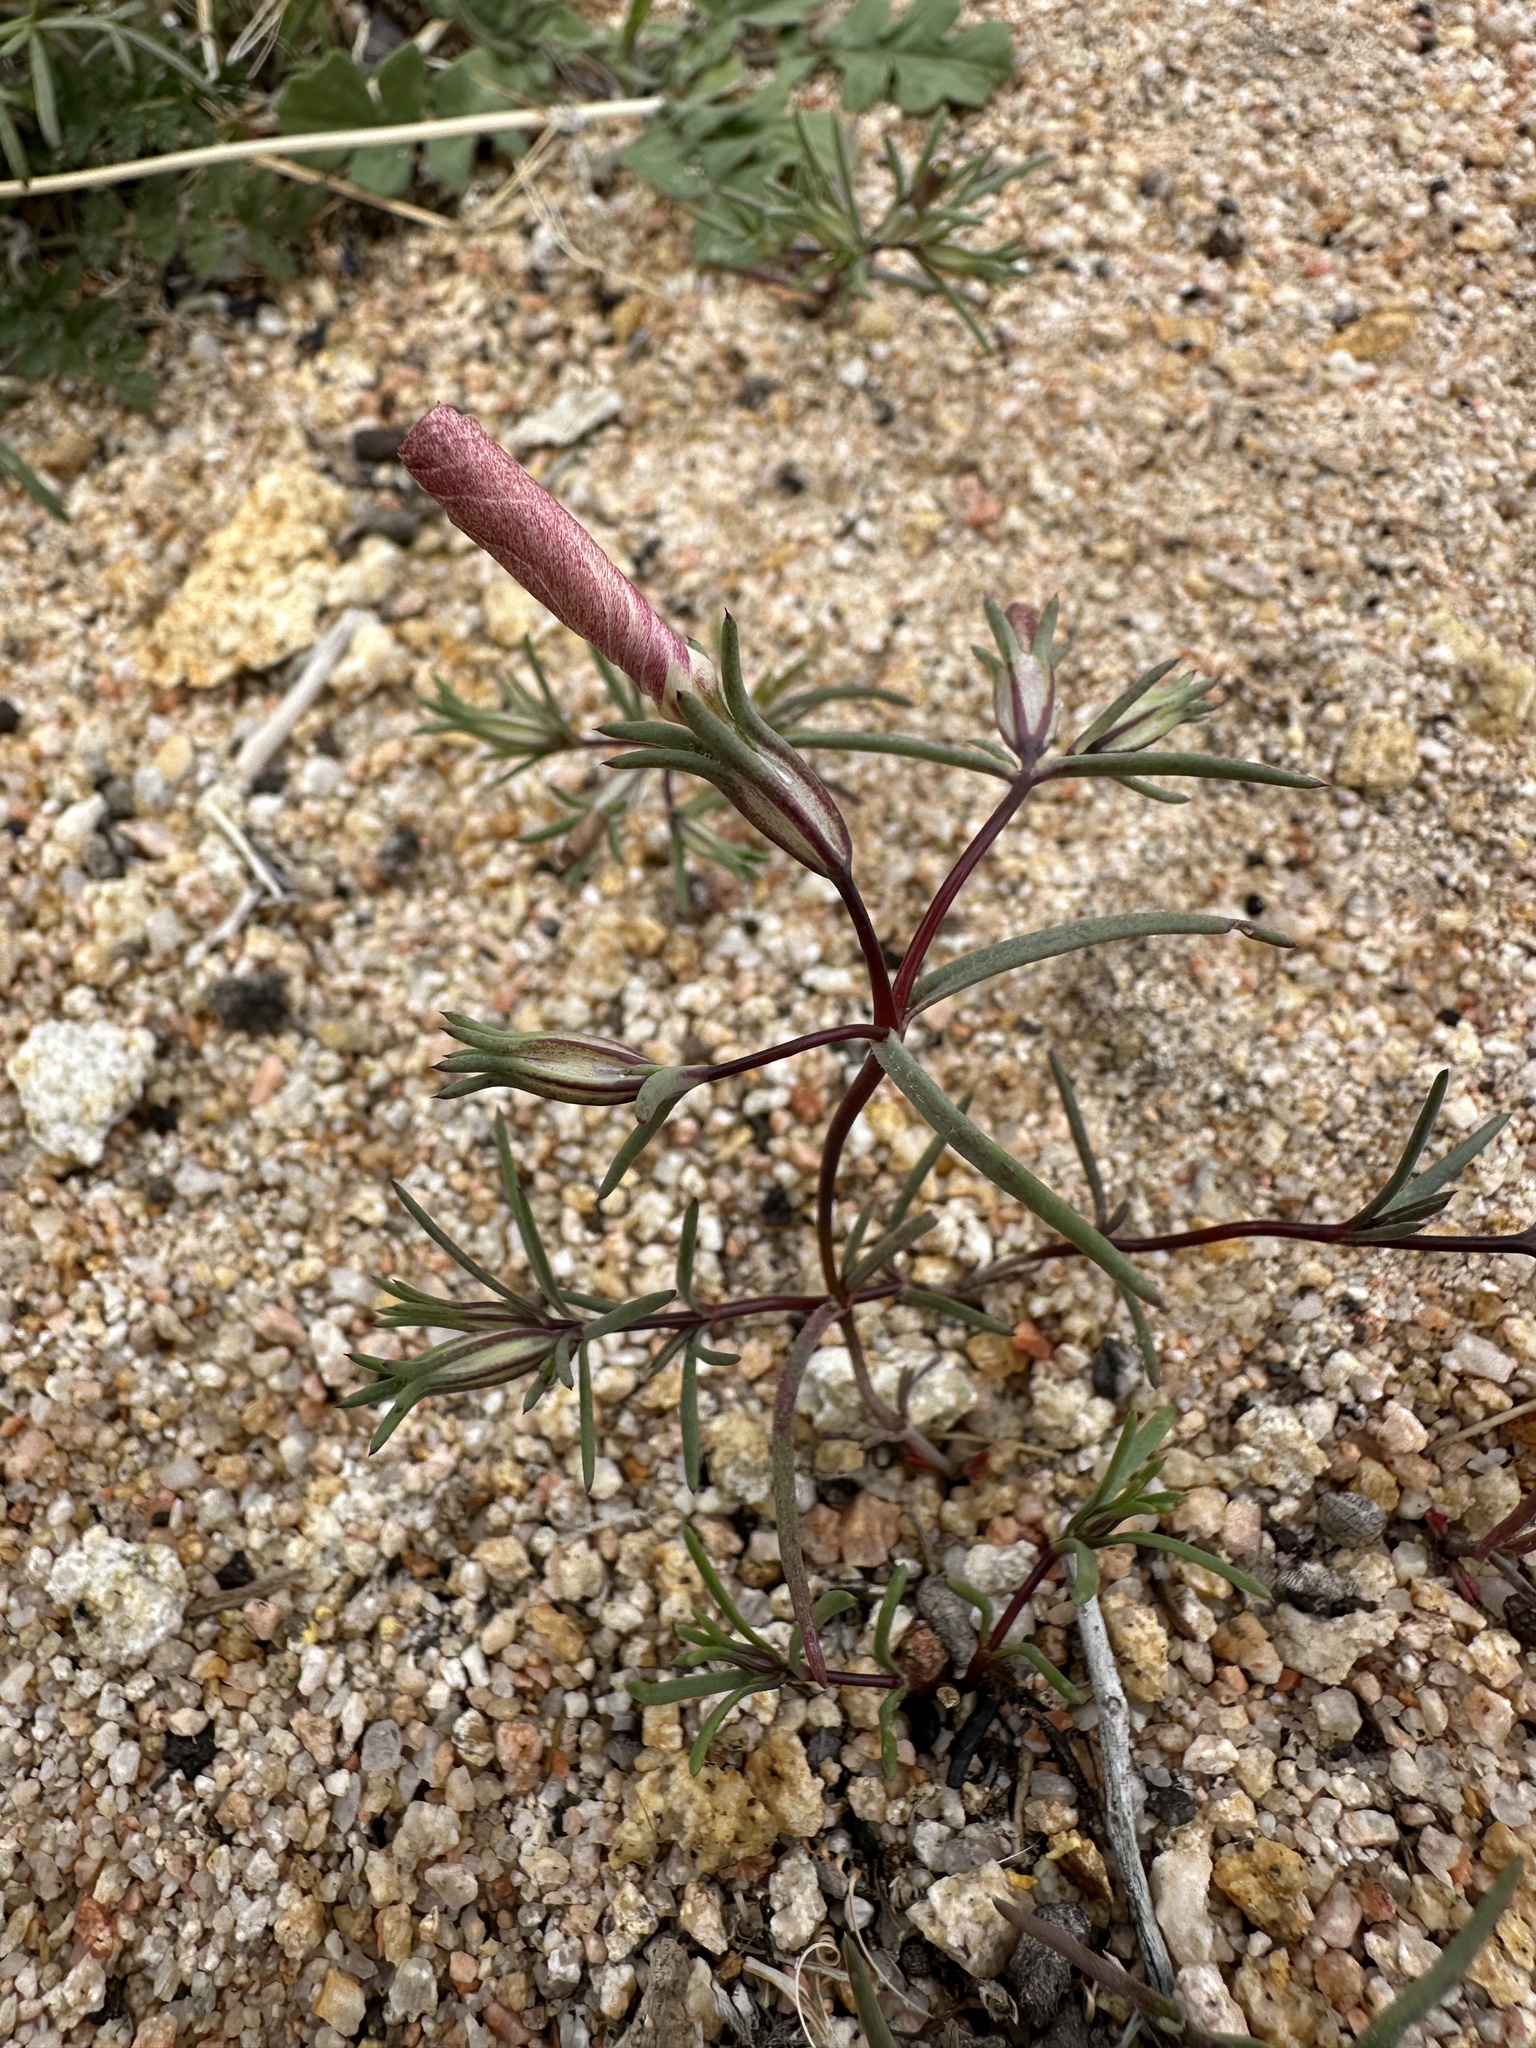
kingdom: Plantae
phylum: Tracheophyta
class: Magnoliopsida
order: Ericales
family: Polemoniaceae
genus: Linanthus
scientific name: Linanthus dichotomus
